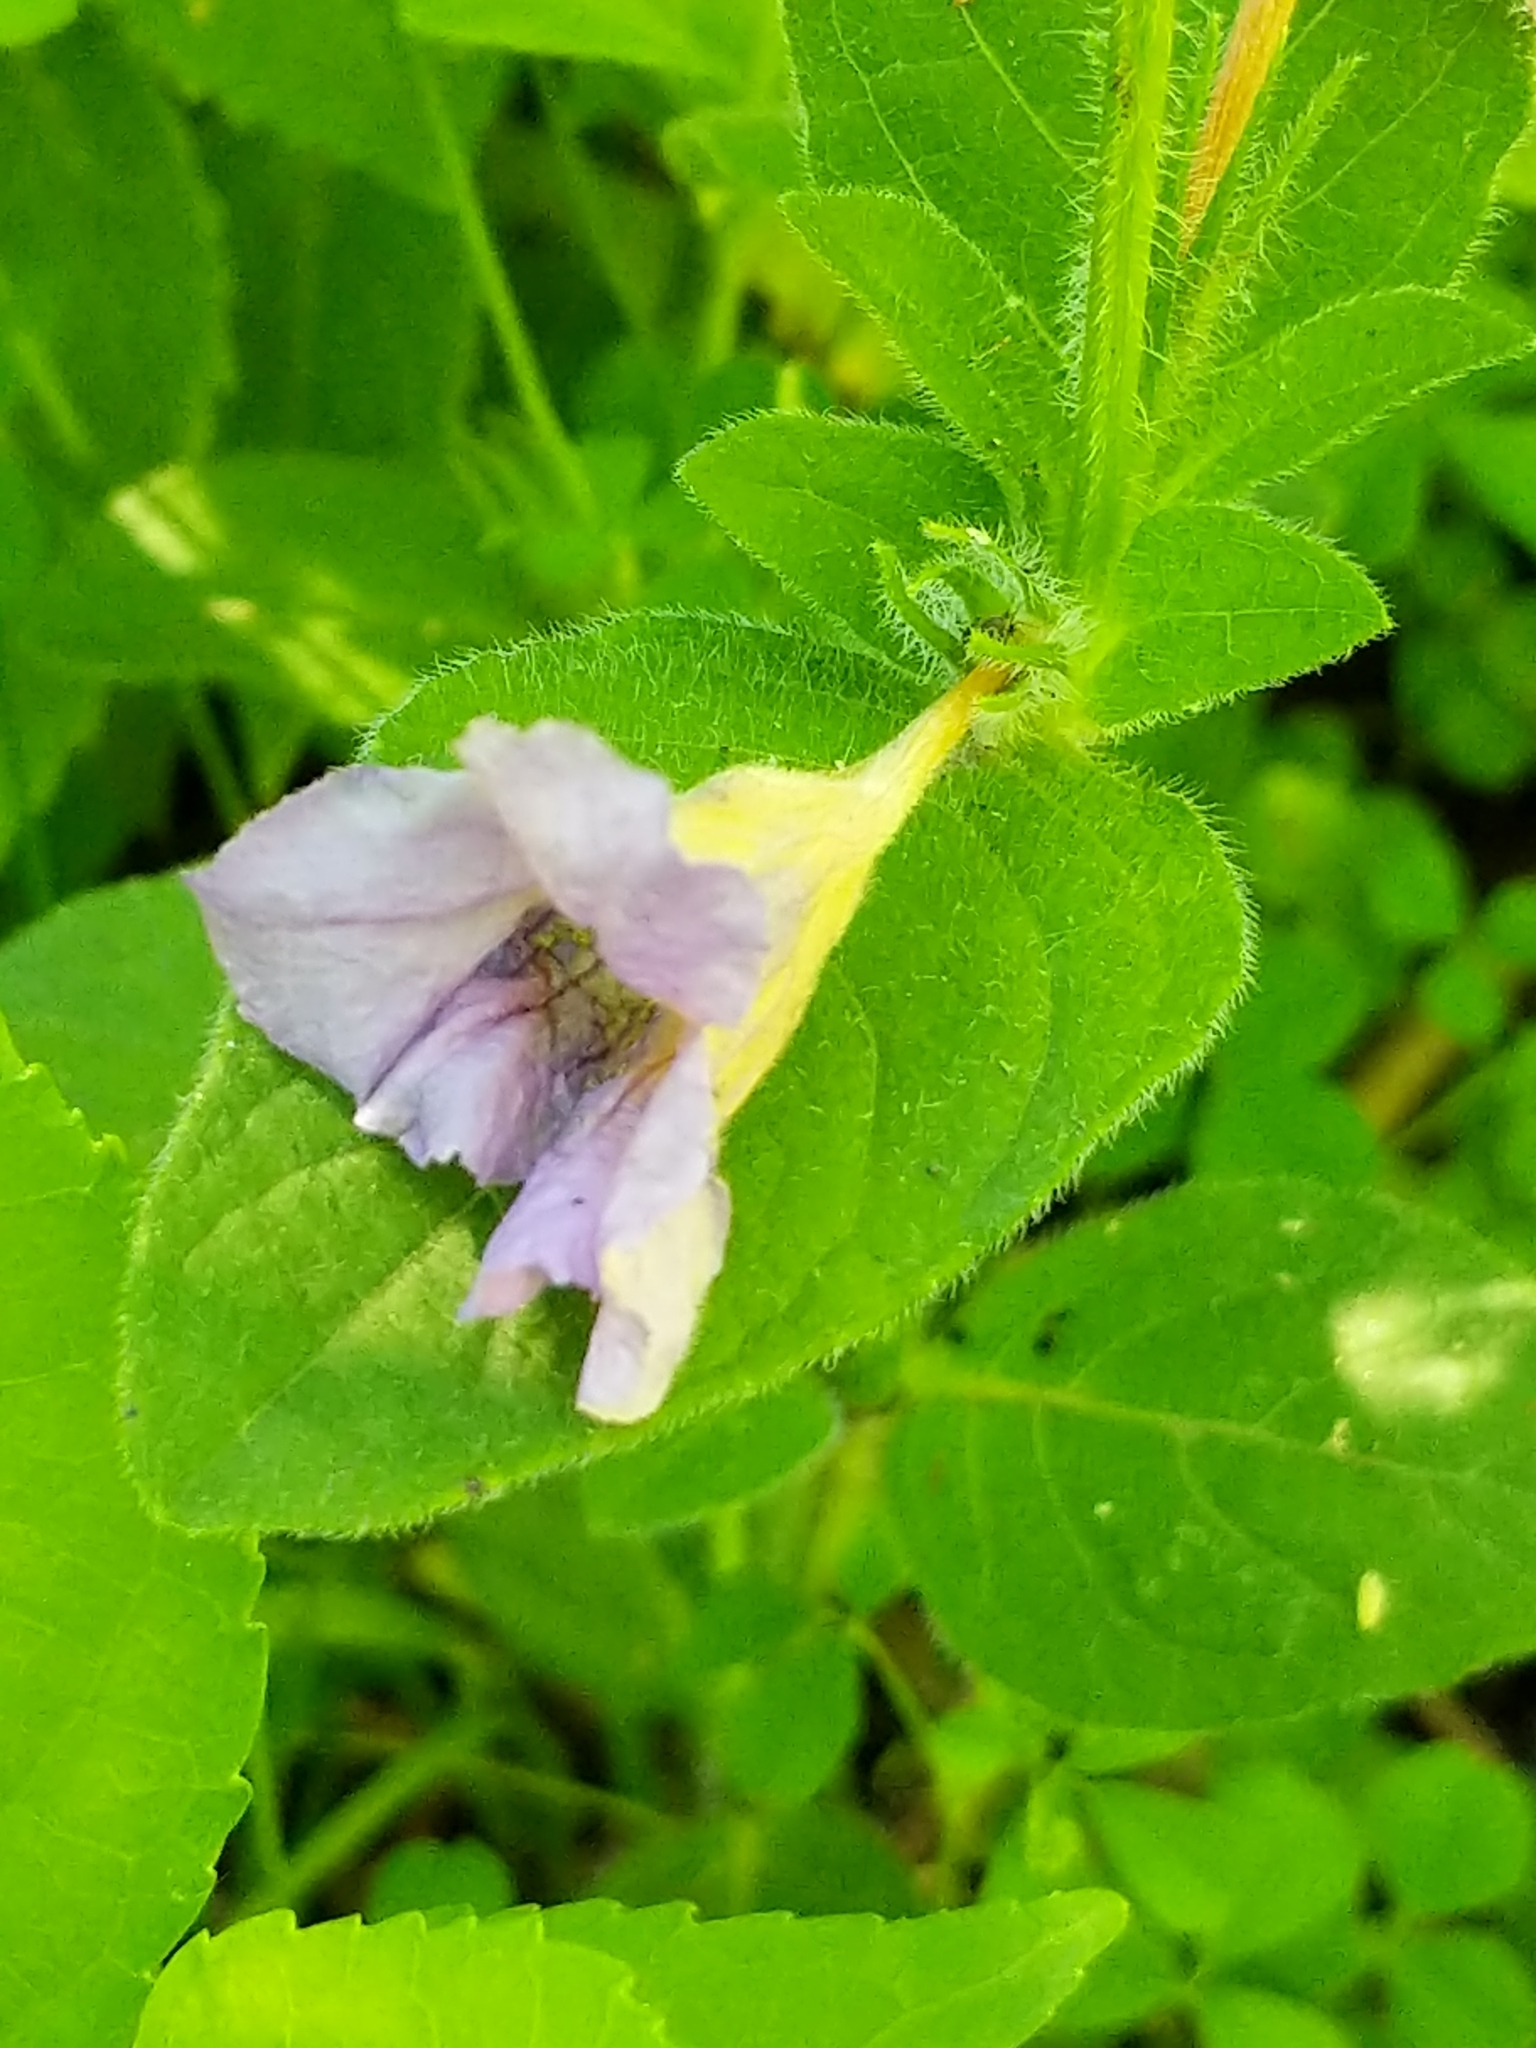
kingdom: Plantae
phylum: Tracheophyta
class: Magnoliopsida
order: Lamiales
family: Acanthaceae
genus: Ruellia
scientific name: Ruellia humilis
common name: Fringe-leaf ruellia
